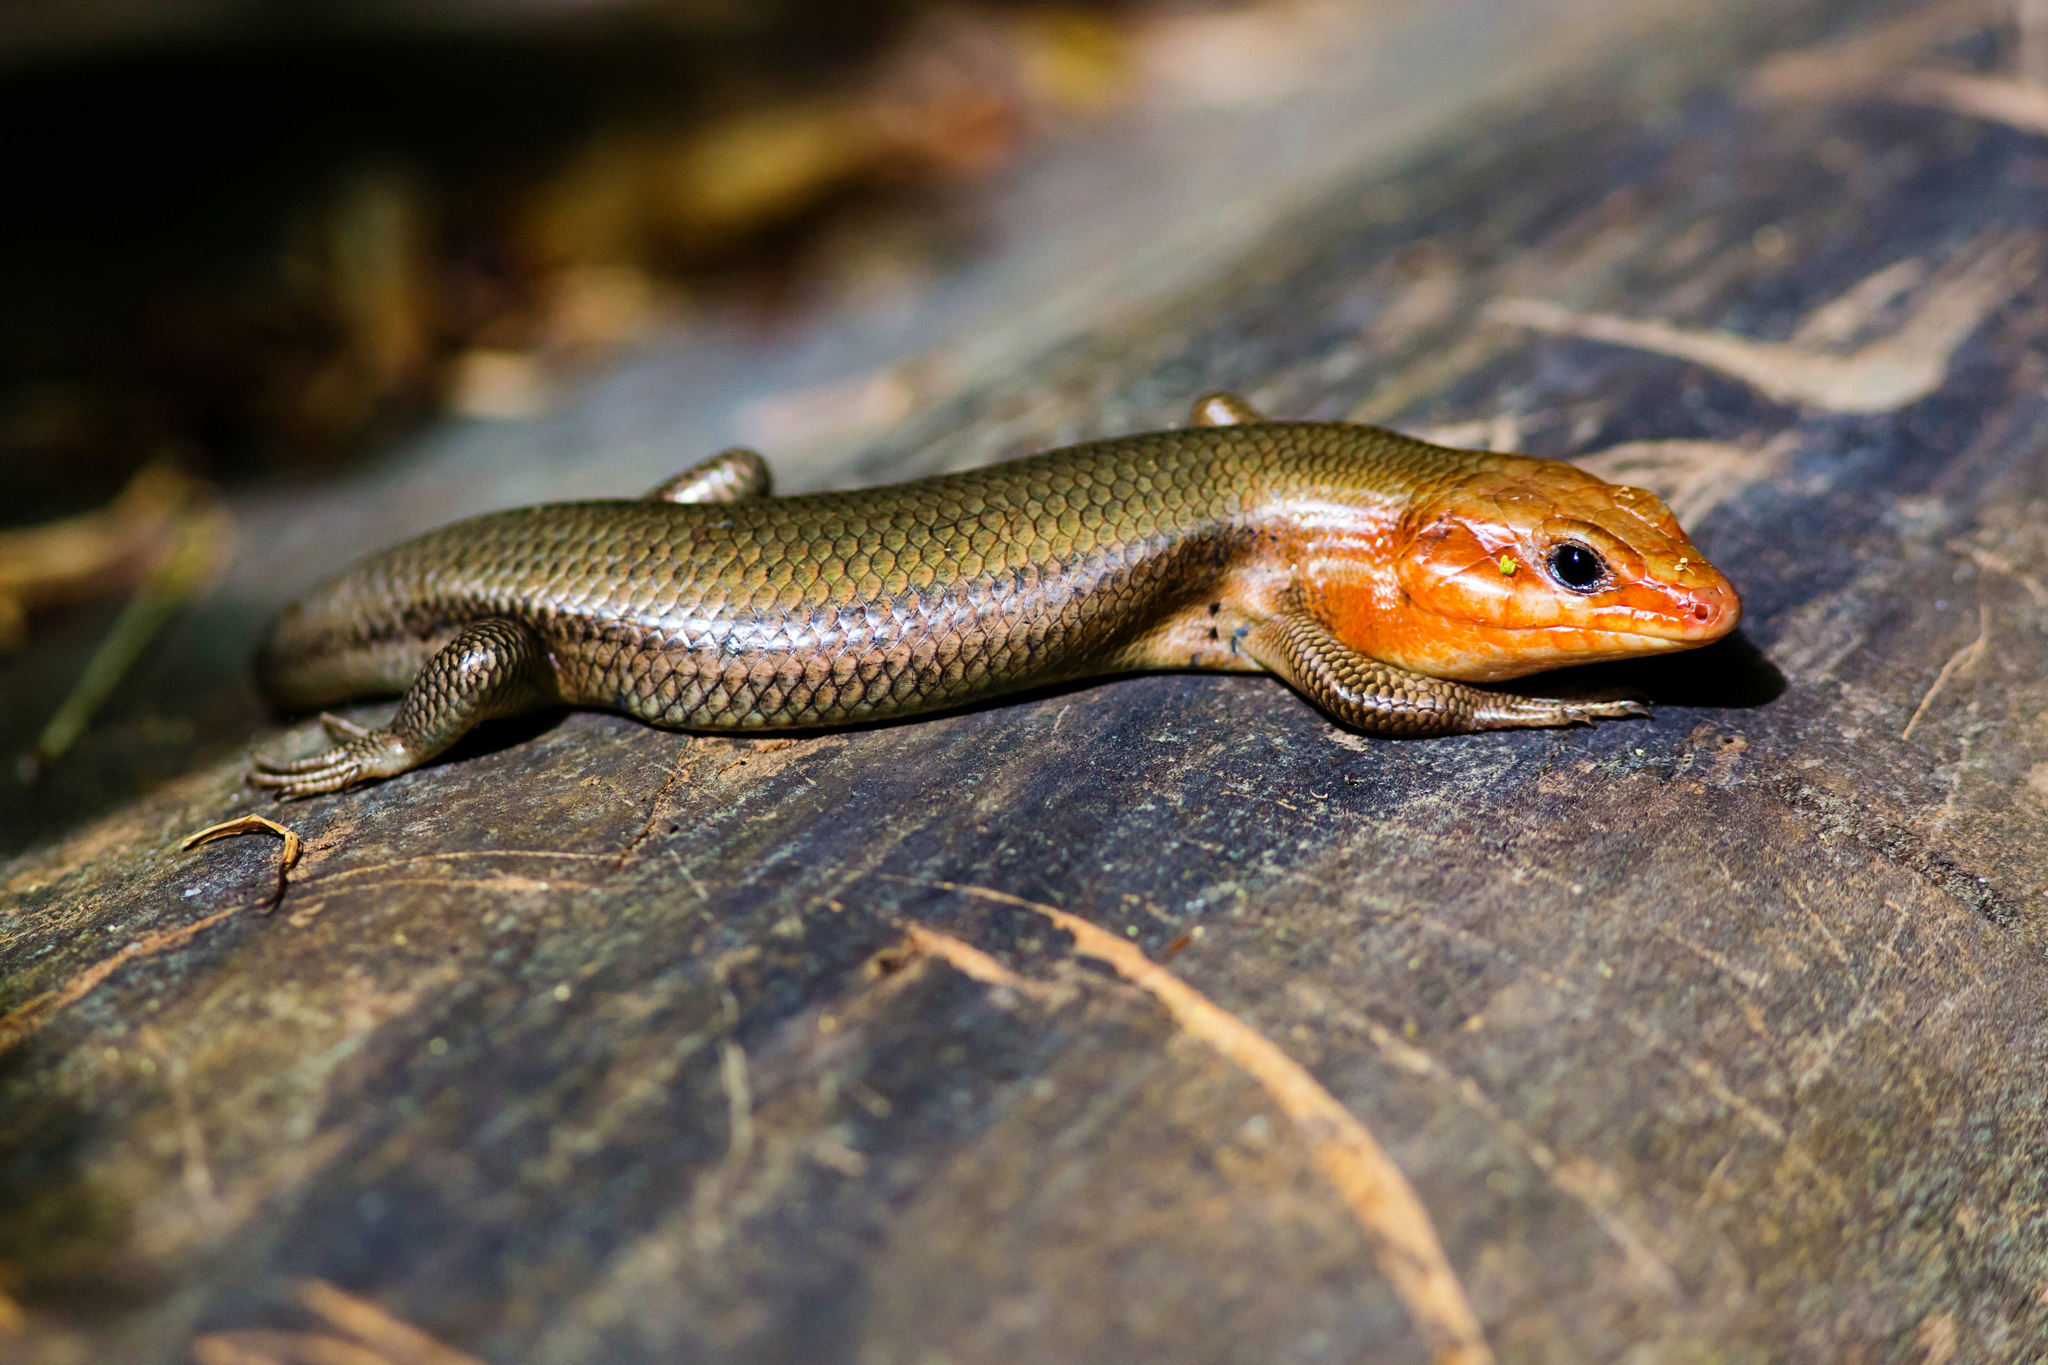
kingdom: Animalia
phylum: Chordata
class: Squamata
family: Scincidae
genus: Plestiodon
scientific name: Plestiodon laticeps
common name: Broadhead skink
